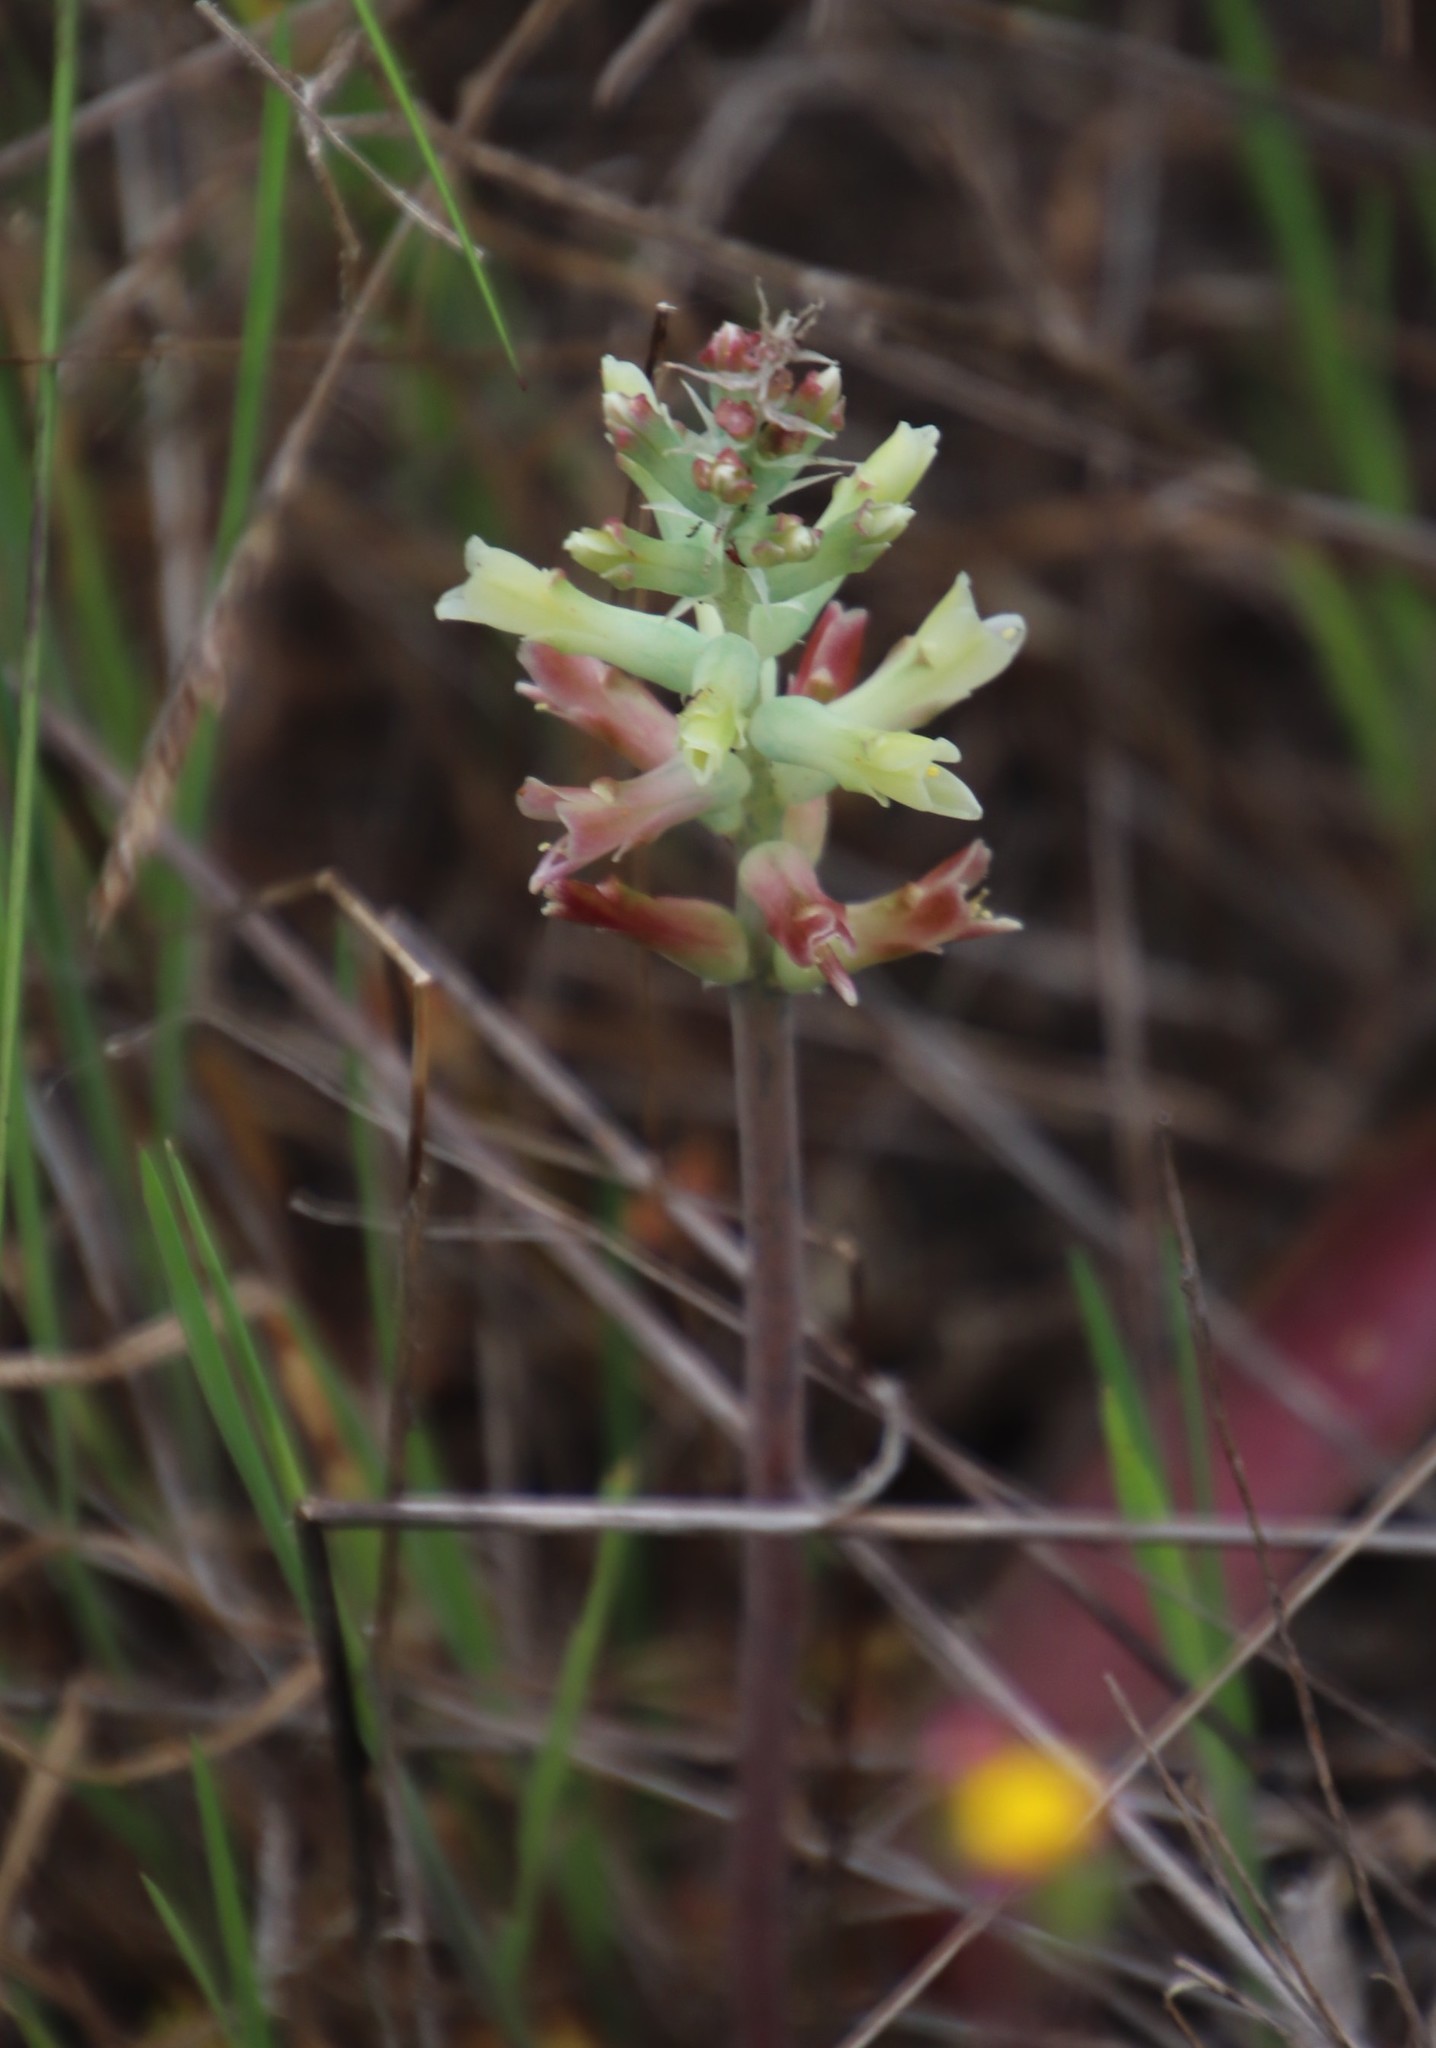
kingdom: Plantae
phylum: Tracheophyta
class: Liliopsida
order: Asparagales
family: Asparagaceae
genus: Lachenalia
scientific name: Lachenalia orchioides
